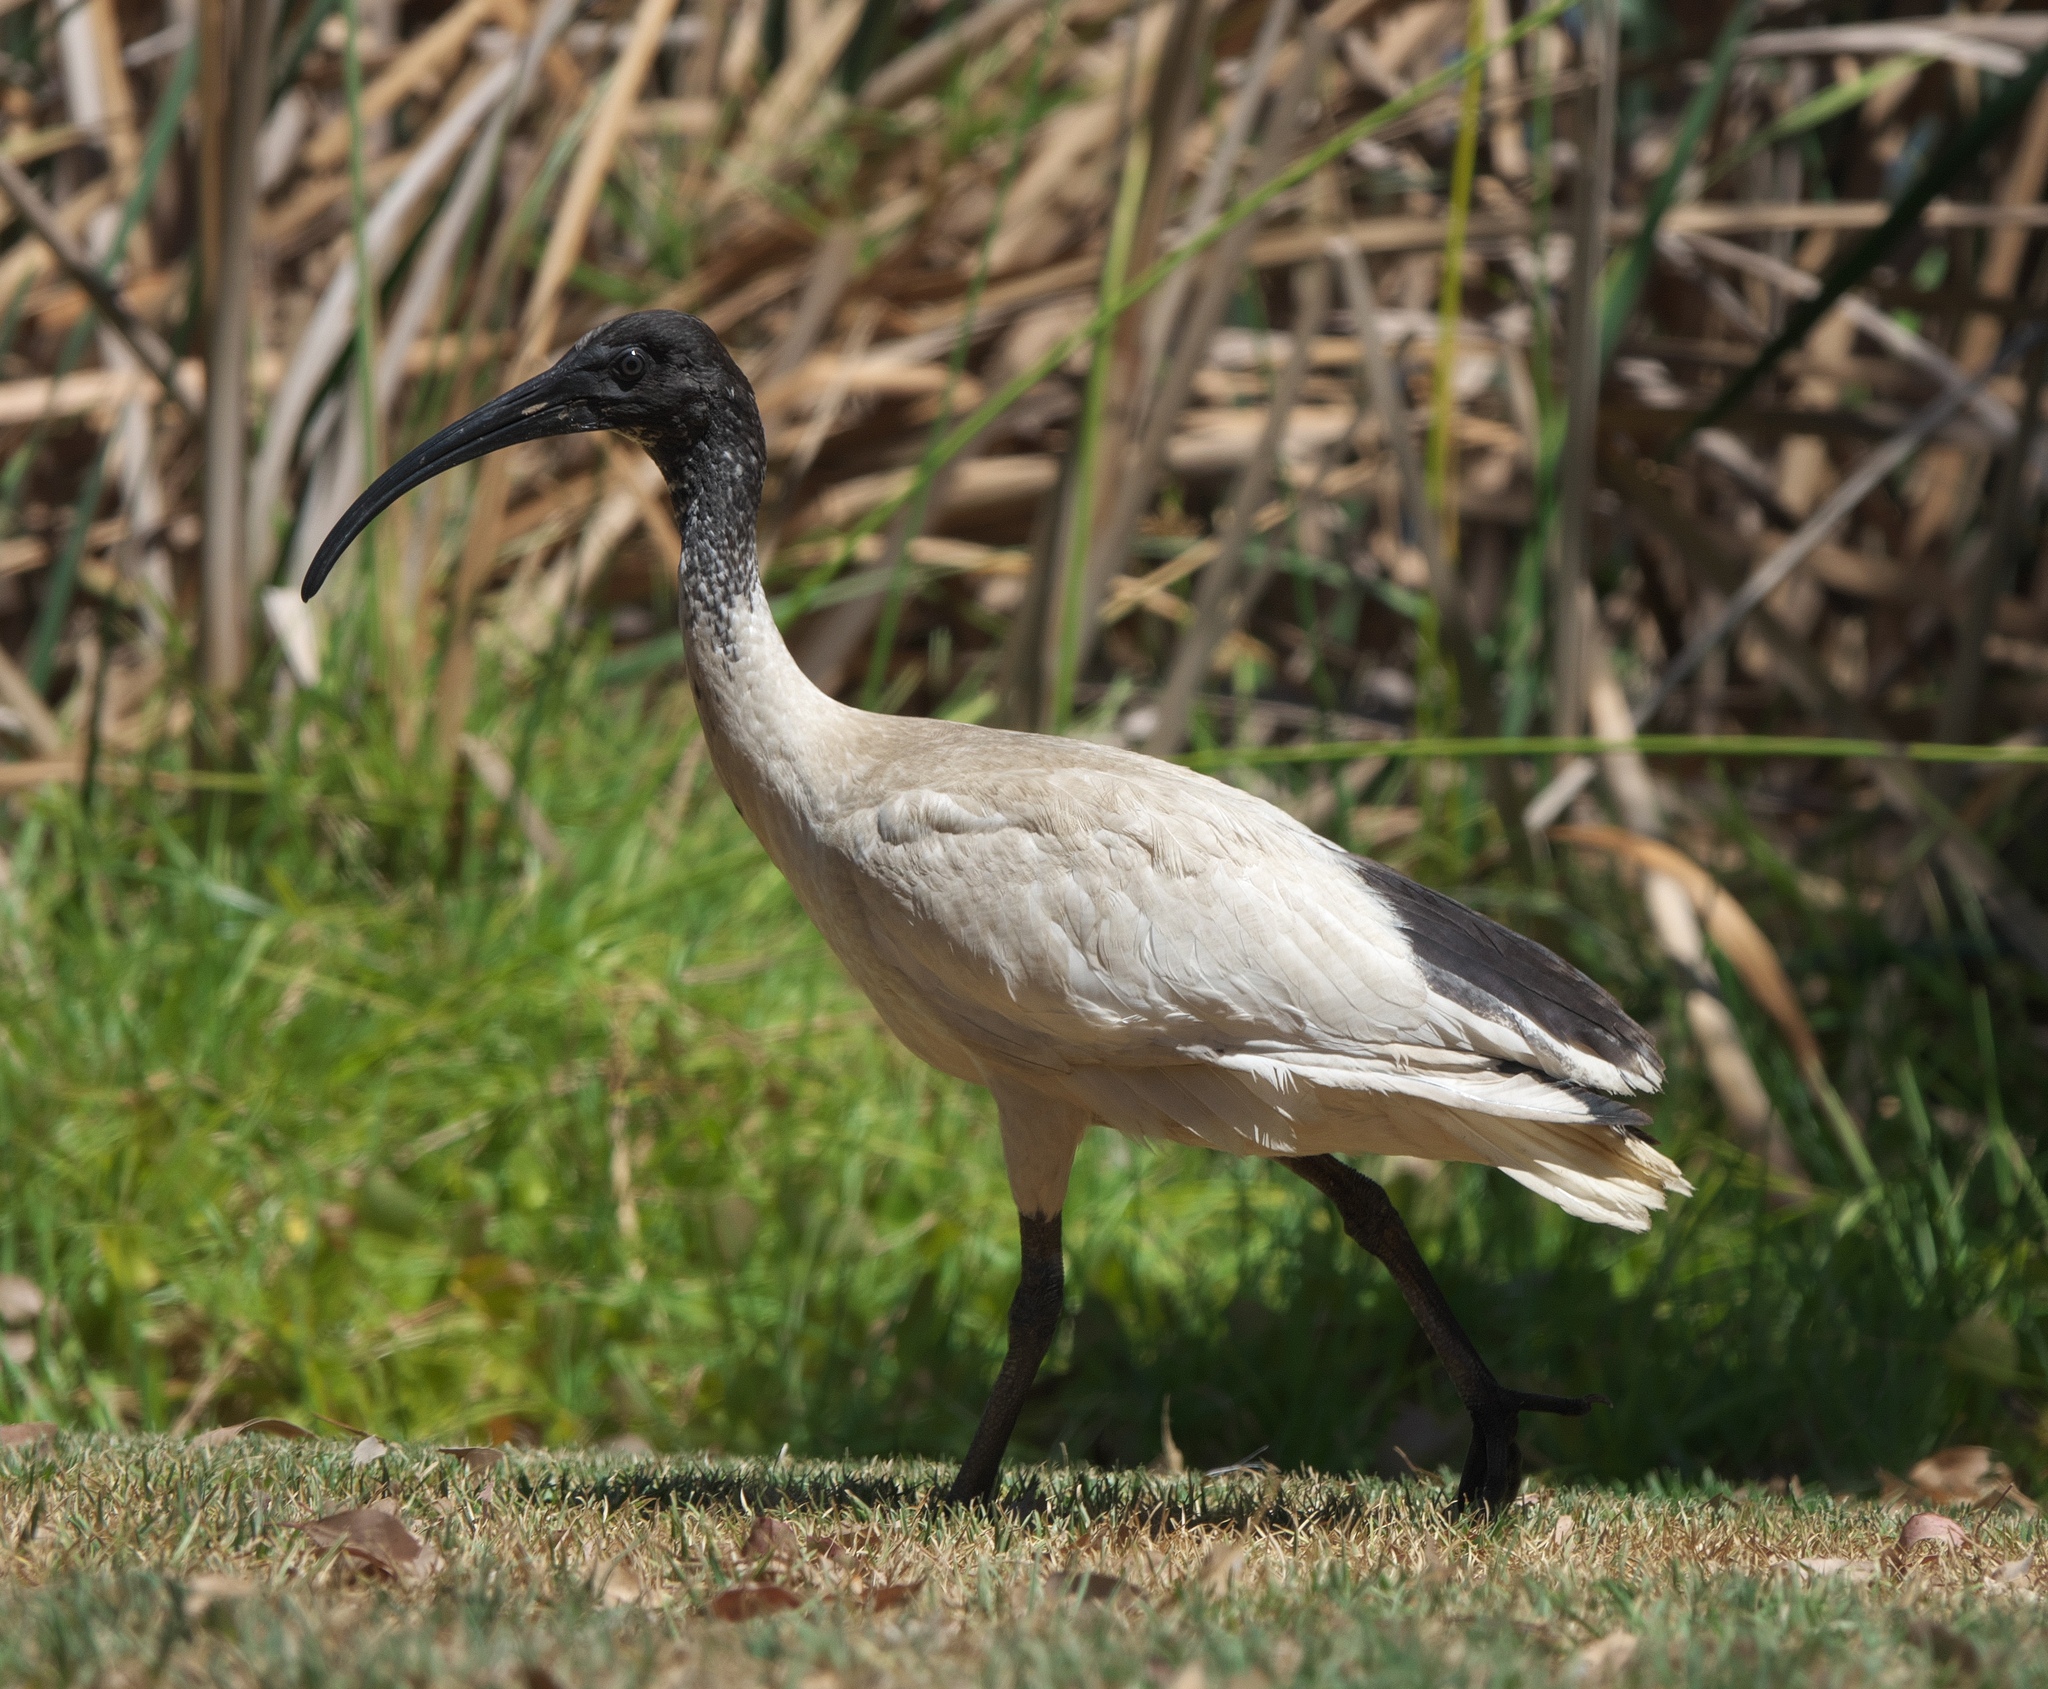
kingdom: Animalia
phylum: Chordata
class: Aves
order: Pelecaniformes
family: Threskiornithidae
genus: Threskiornis
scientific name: Threskiornis molucca
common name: Australian white ibis
